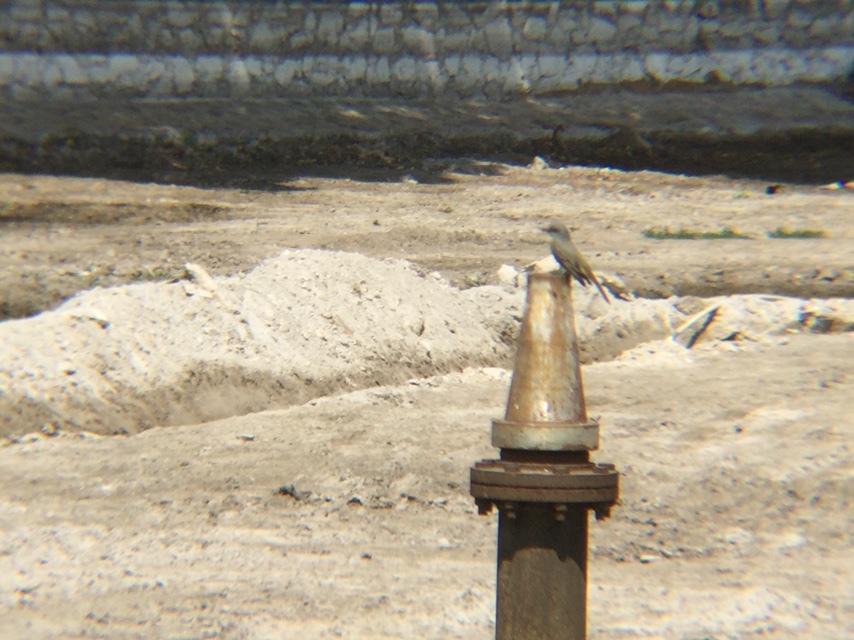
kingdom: Animalia
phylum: Chordata
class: Aves
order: Passeriformes
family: Tyrannidae
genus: Tyrannus
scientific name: Tyrannus melancholicus
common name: Tropical kingbird
